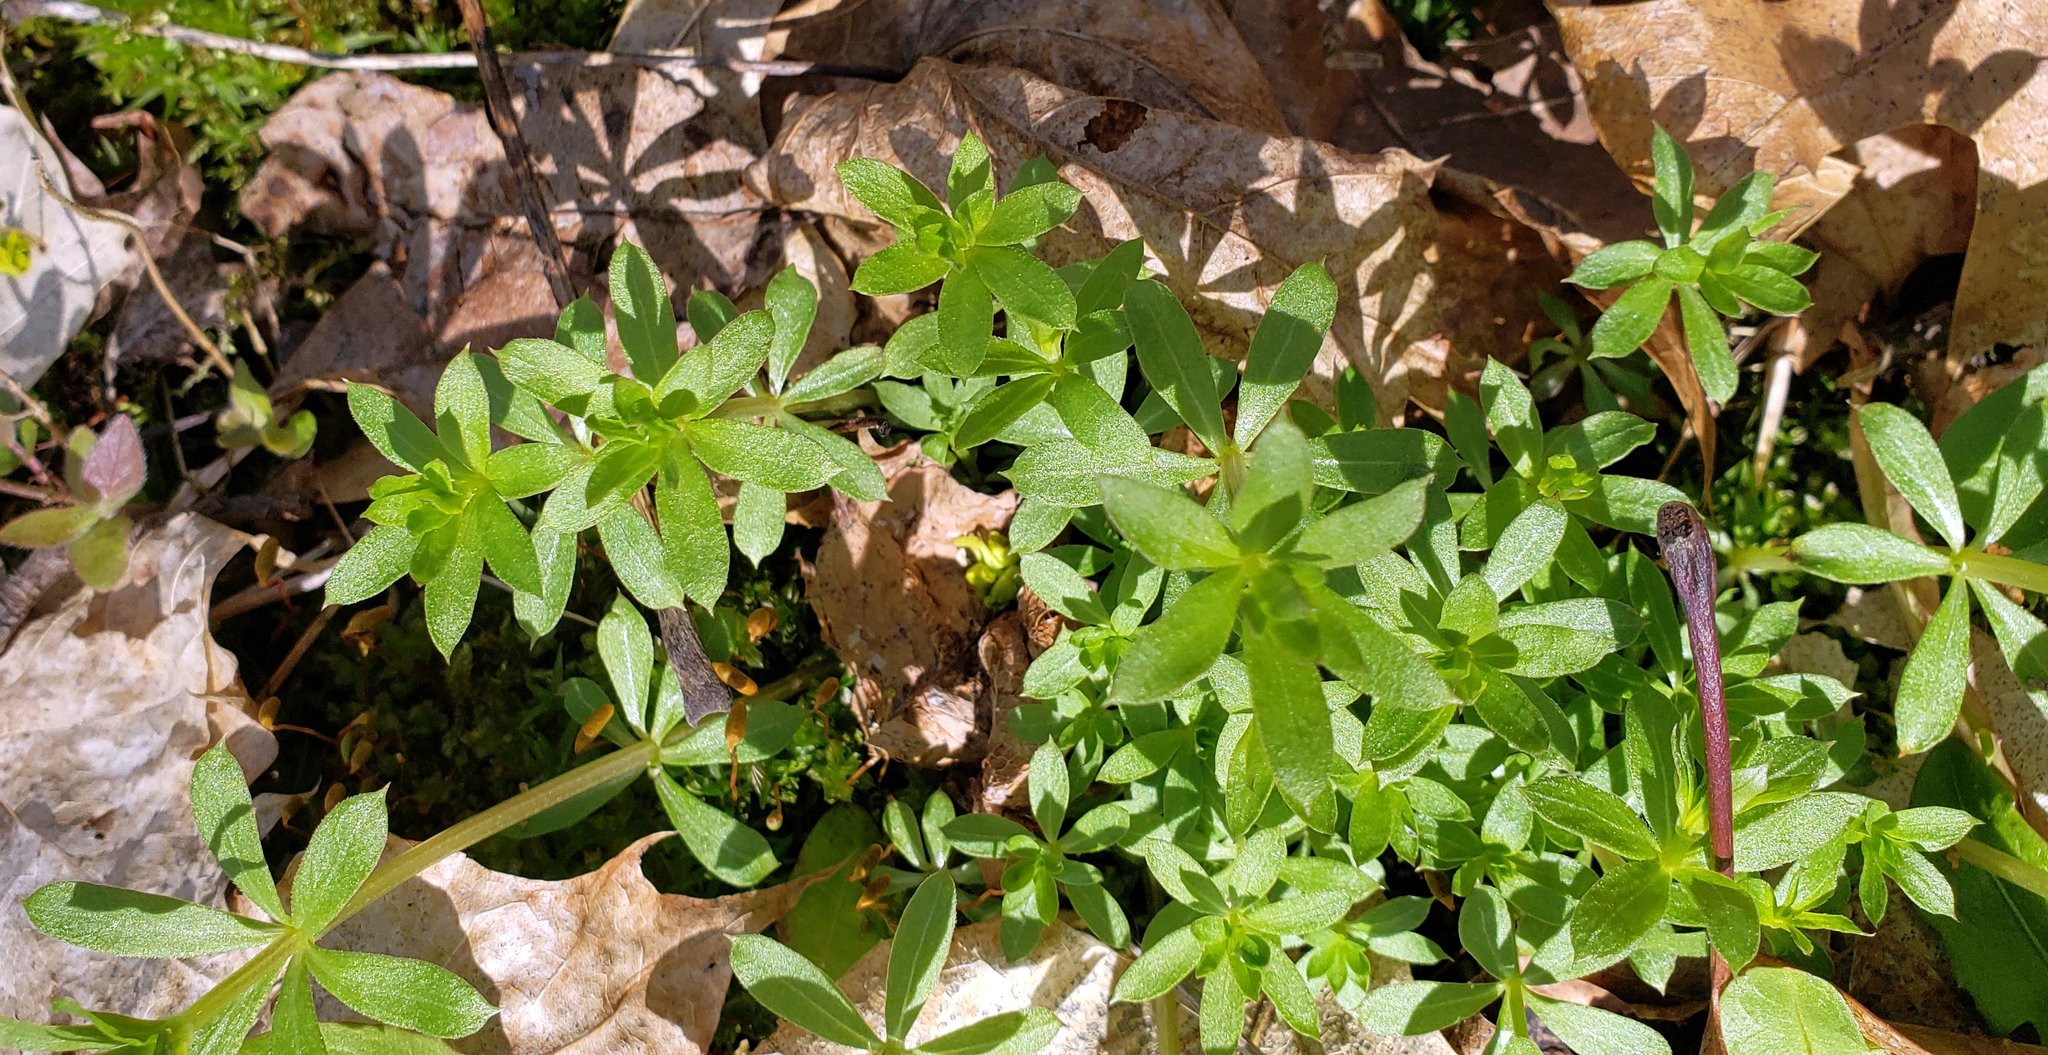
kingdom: Plantae
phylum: Tracheophyta
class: Magnoliopsida
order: Gentianales
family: Rubiaceae
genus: Galium
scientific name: Galium triflorum
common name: Fragrant bedstraw
